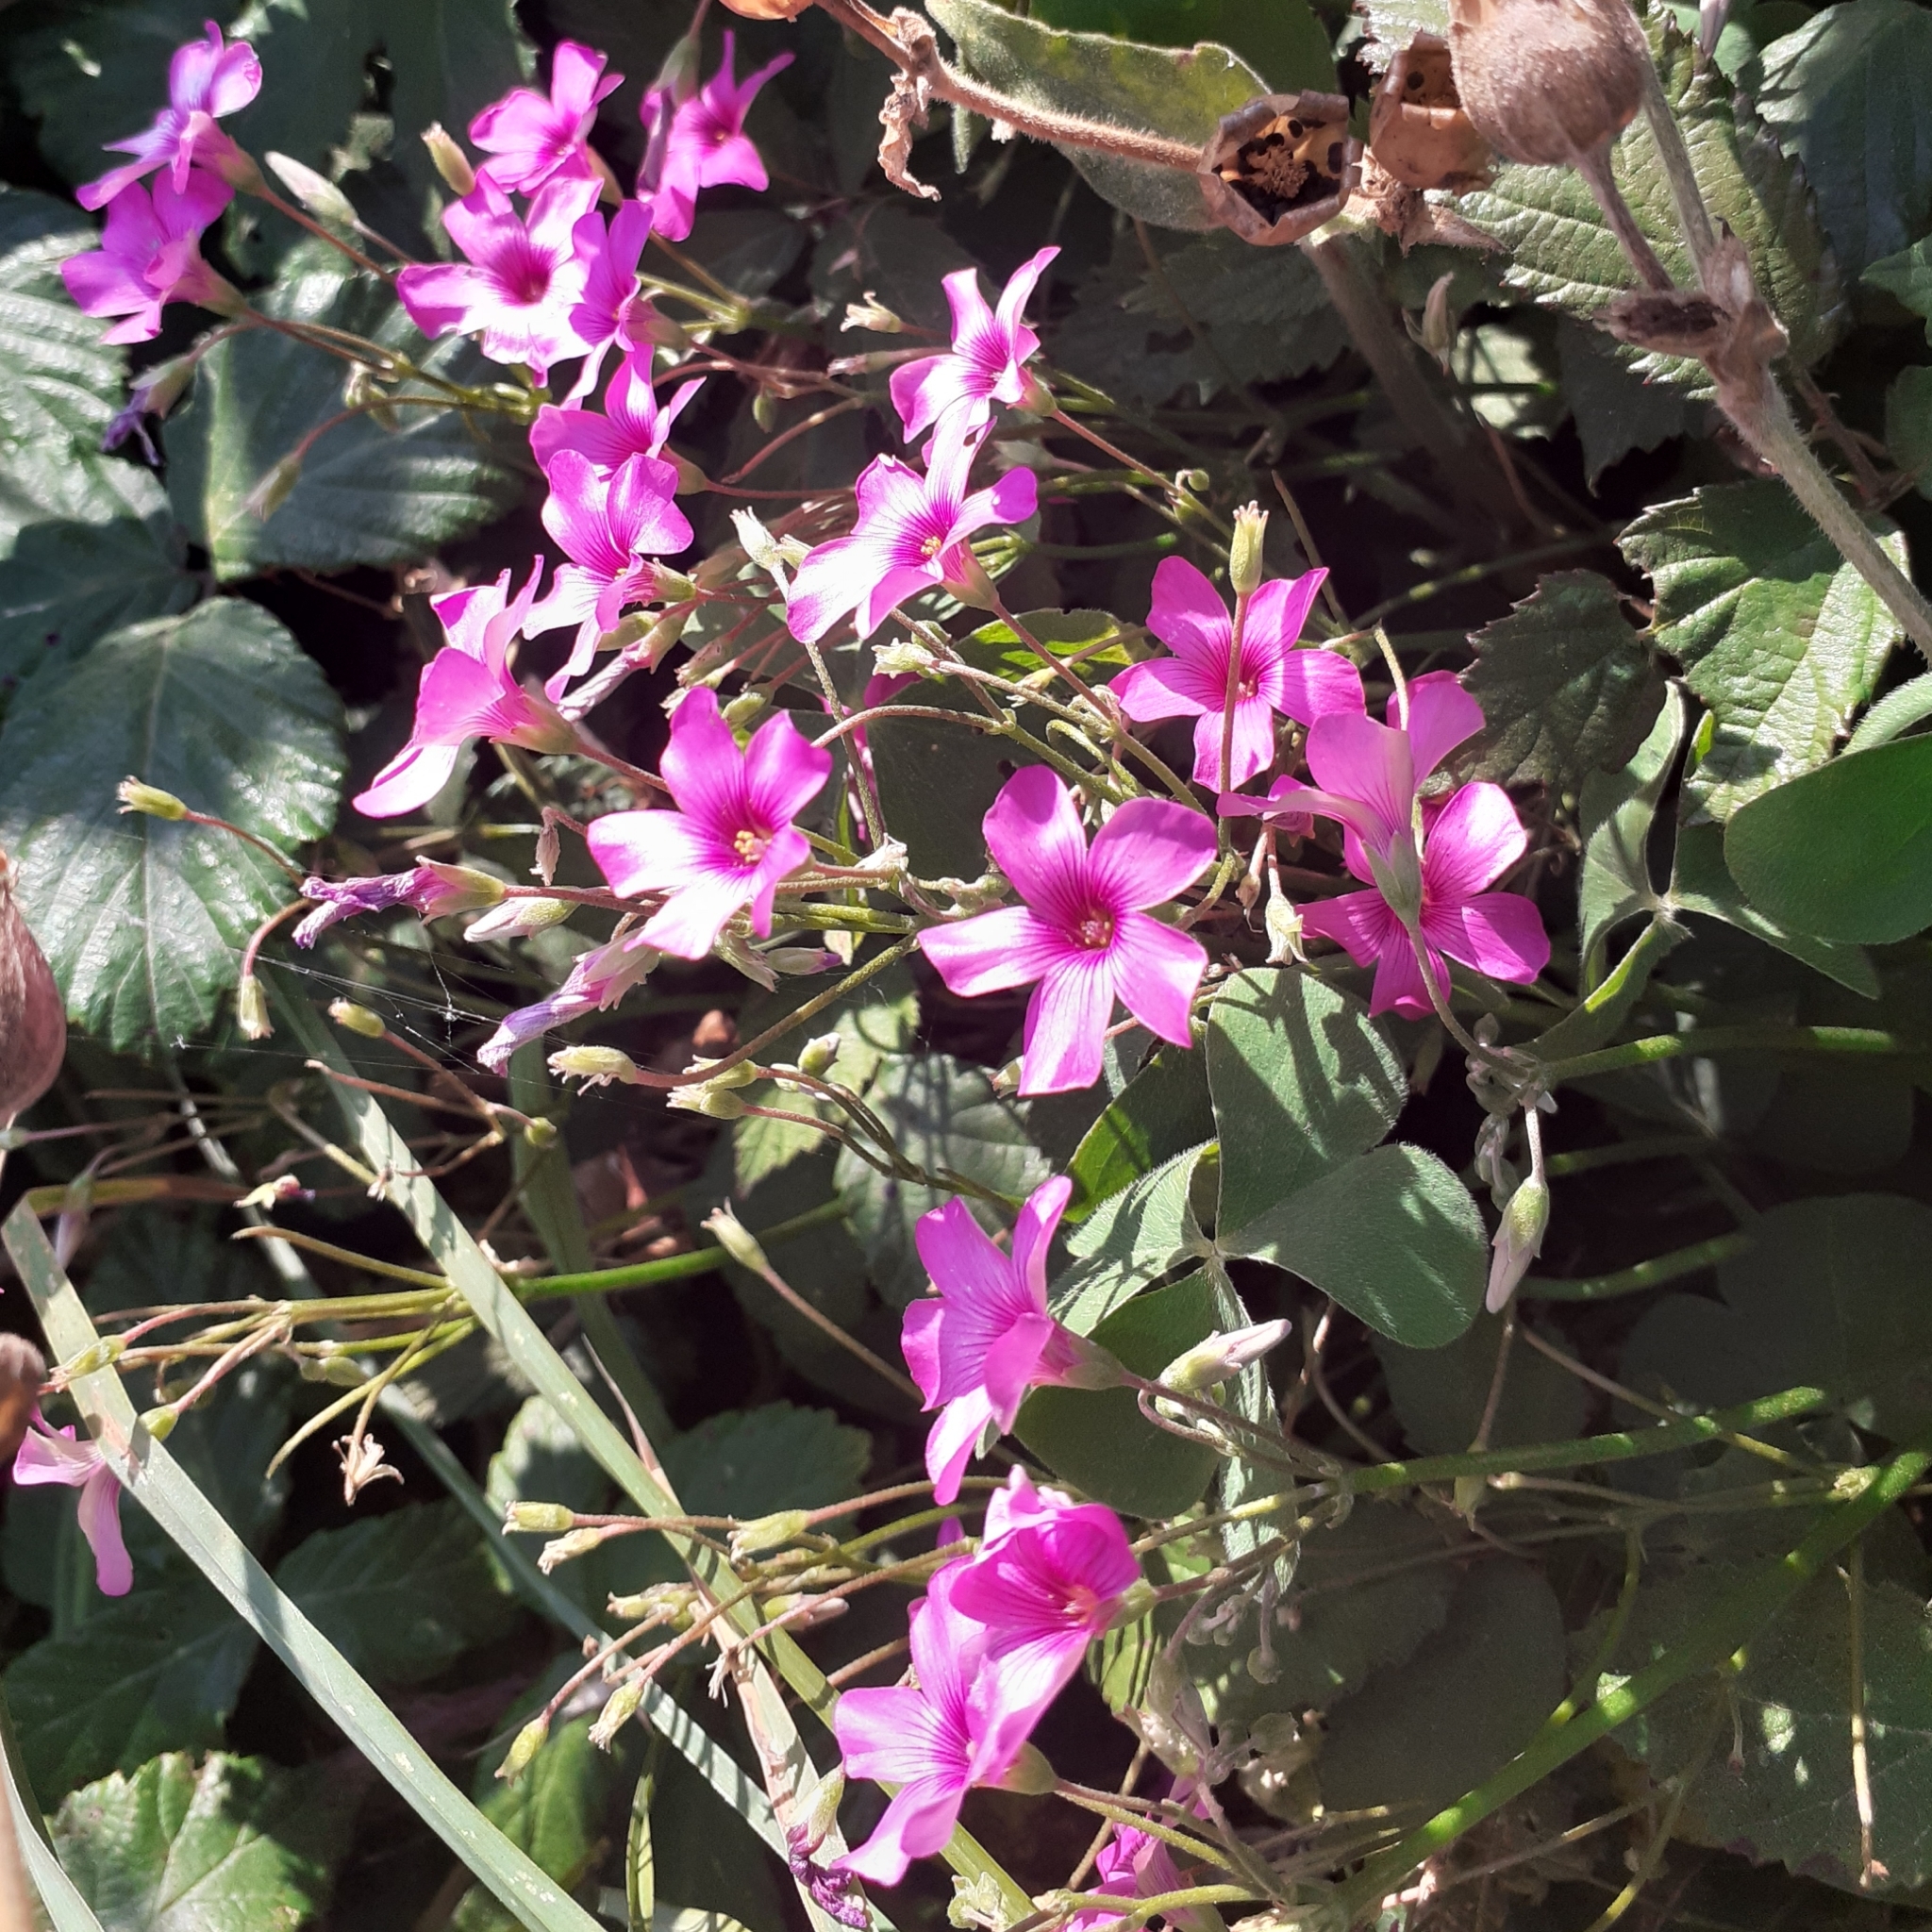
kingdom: Plantae
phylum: Tracheophyta
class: Magnoliopsida
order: Oxalidales
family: Oxalidaceae
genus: Oxalis
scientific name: Oxalis articulata
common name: Pink-sorrel
